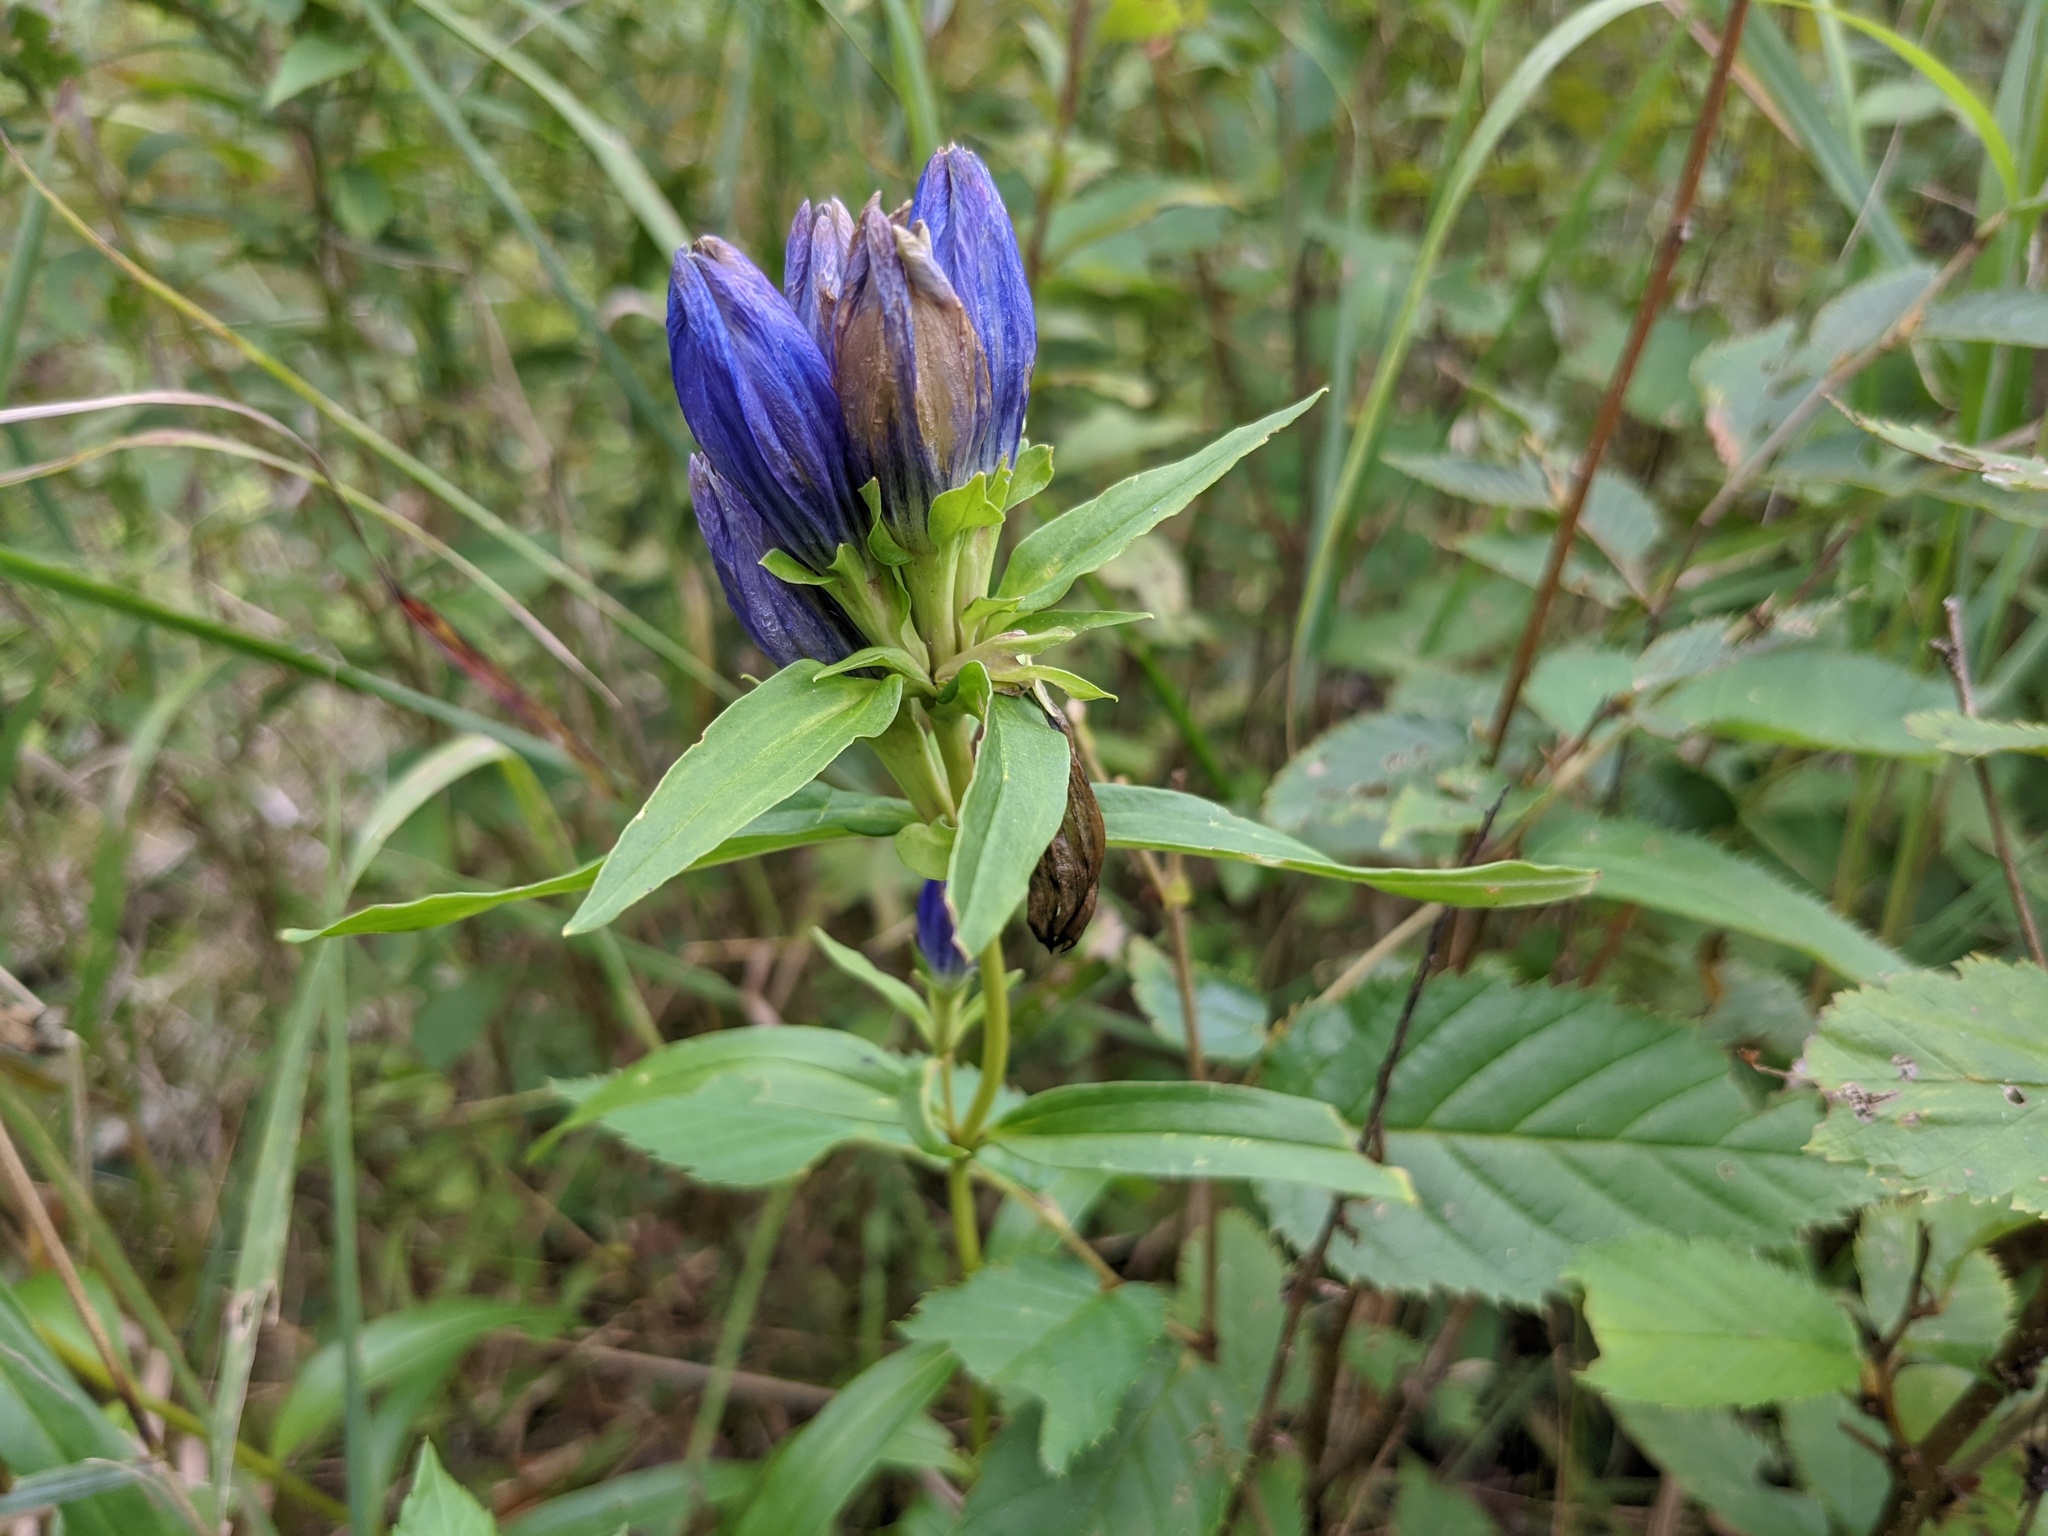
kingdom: Plantae
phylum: Tracheophyta
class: Magnoliopsida
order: Gentianales
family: Gentianaceae
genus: Gentiana
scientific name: Gentiana linearis
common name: Bastard gentian
